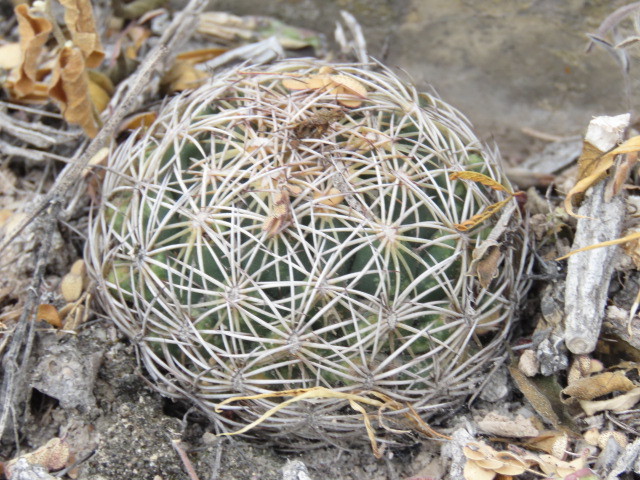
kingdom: Plantae
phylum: Tracheophyta
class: Magnoliopsida
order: Caryophyllales
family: Cactaceae
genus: Coryphantha
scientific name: Coryphantha cornifera
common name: Rhinoceros cactus
